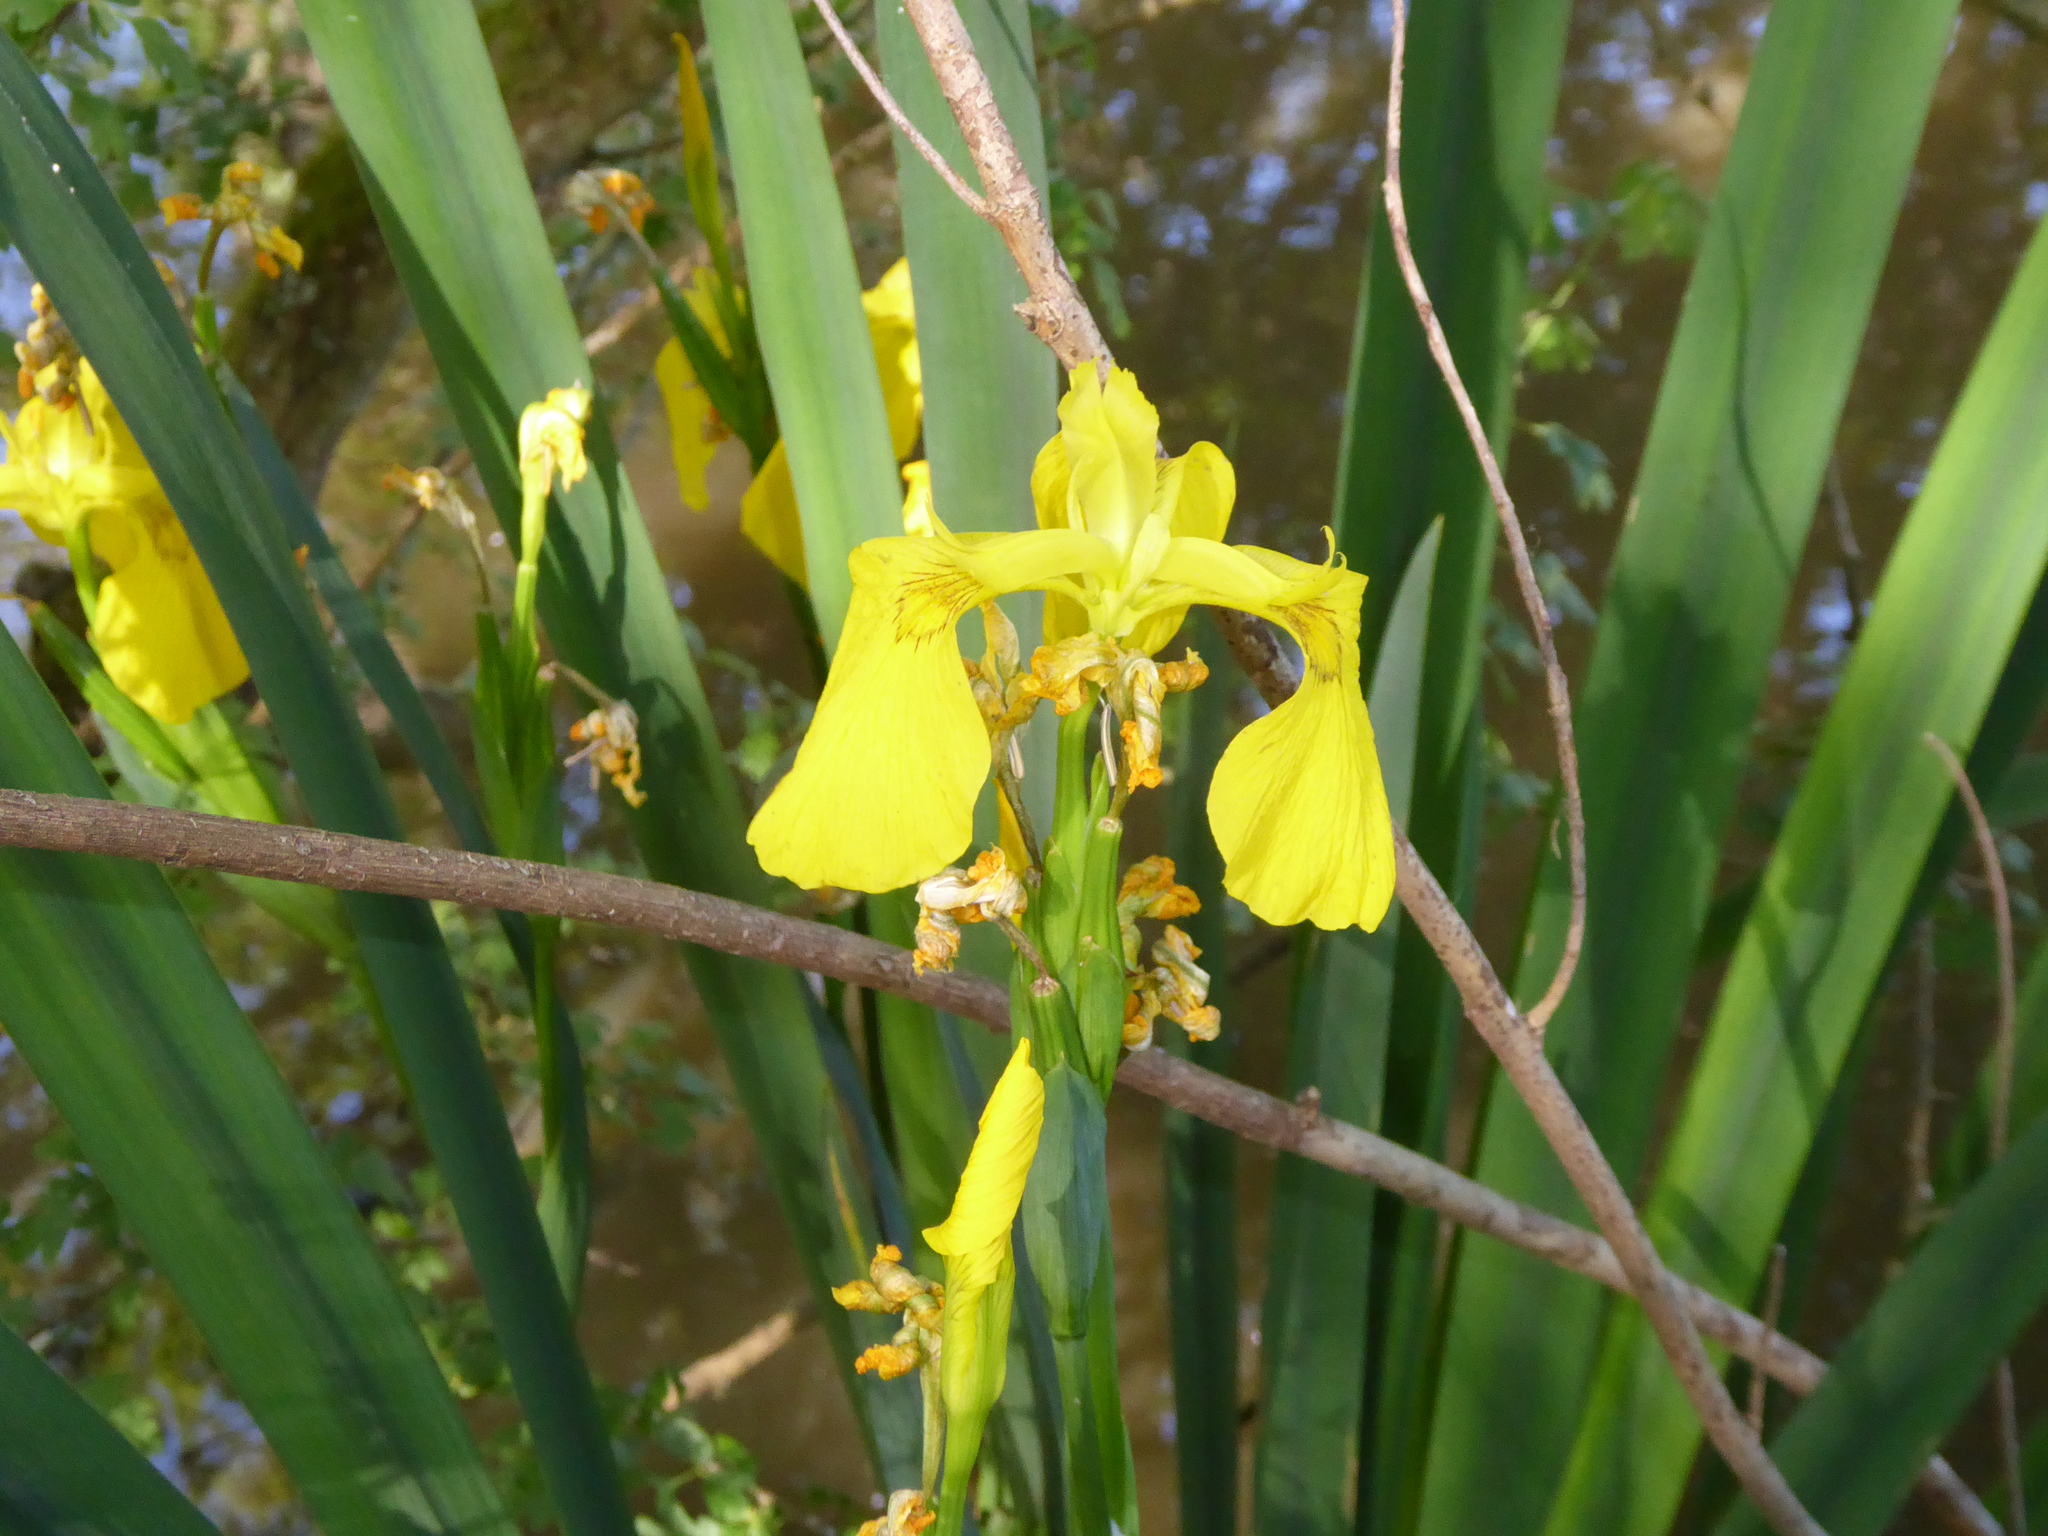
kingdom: Plantae
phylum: Tracheophyta
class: Liliopsida
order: Asparagales
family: Iridaceae
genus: Iris
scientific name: Iris pseudacorus
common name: Yellow flag
